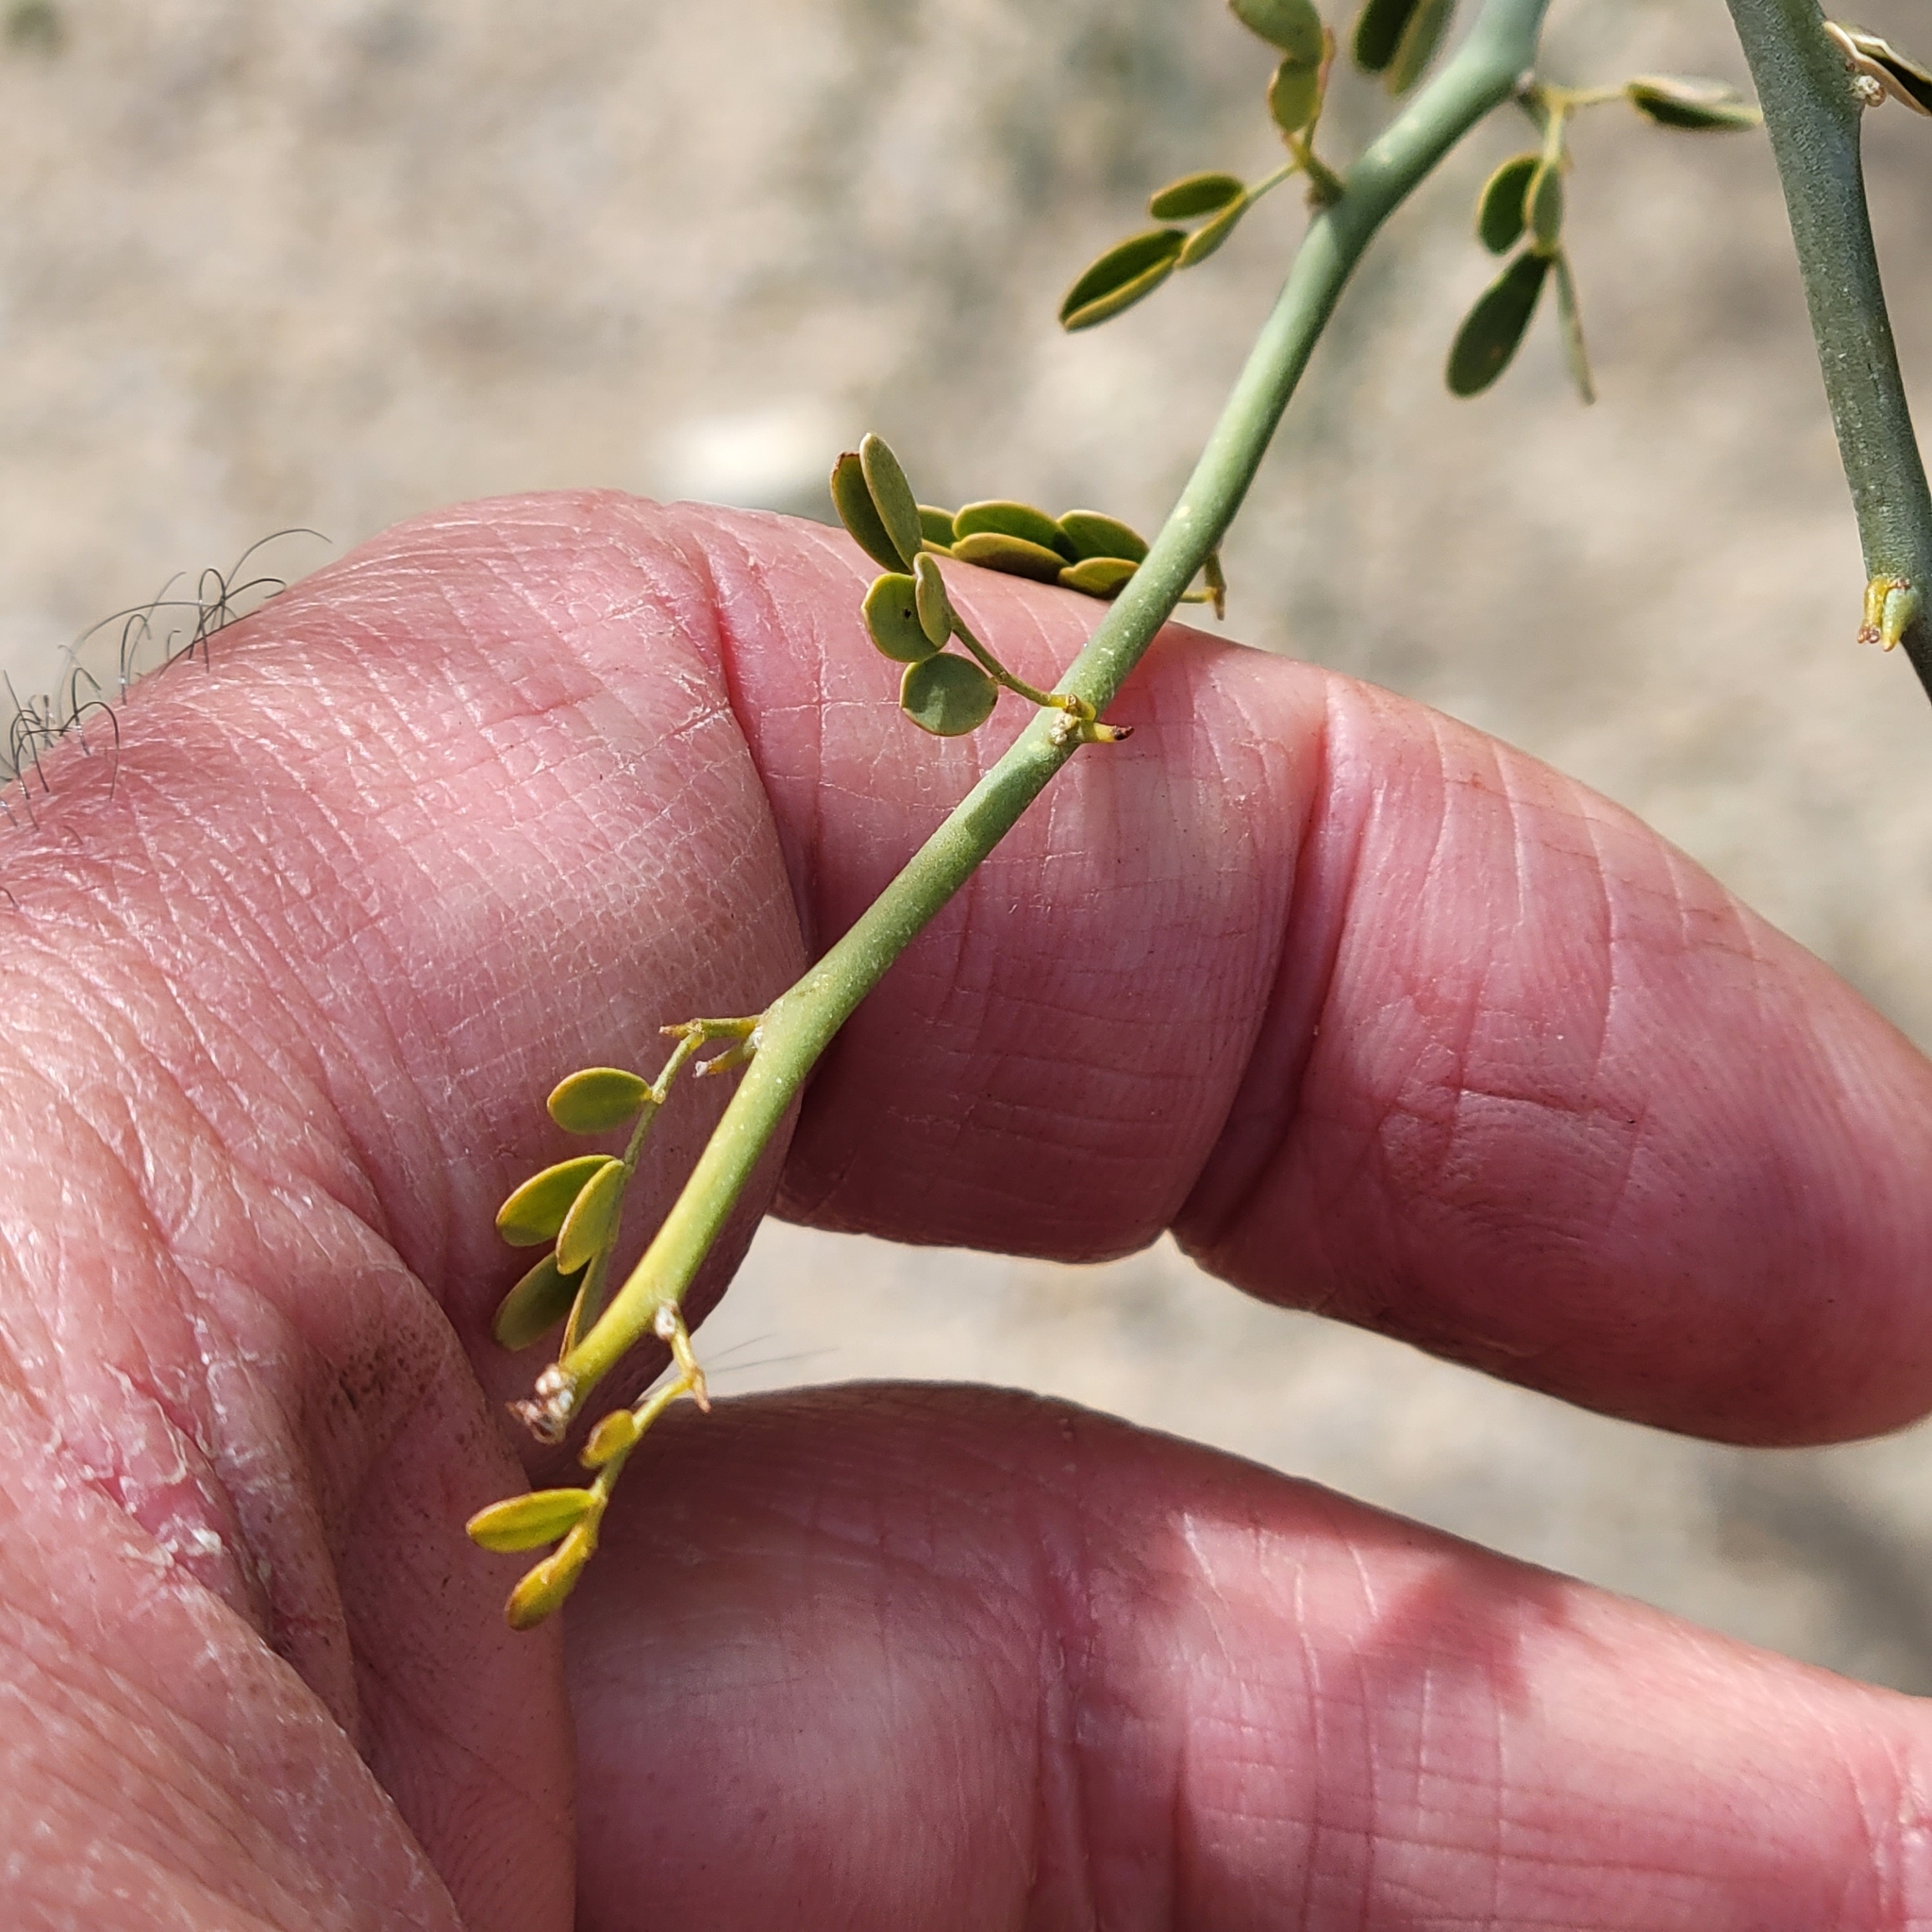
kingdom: Plantae
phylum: Tracheophyta
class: Magnoliopsida
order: Fabales
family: Fabaceae
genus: Parkinsonia
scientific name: Parkinsonia florida
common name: Blue paloverde
